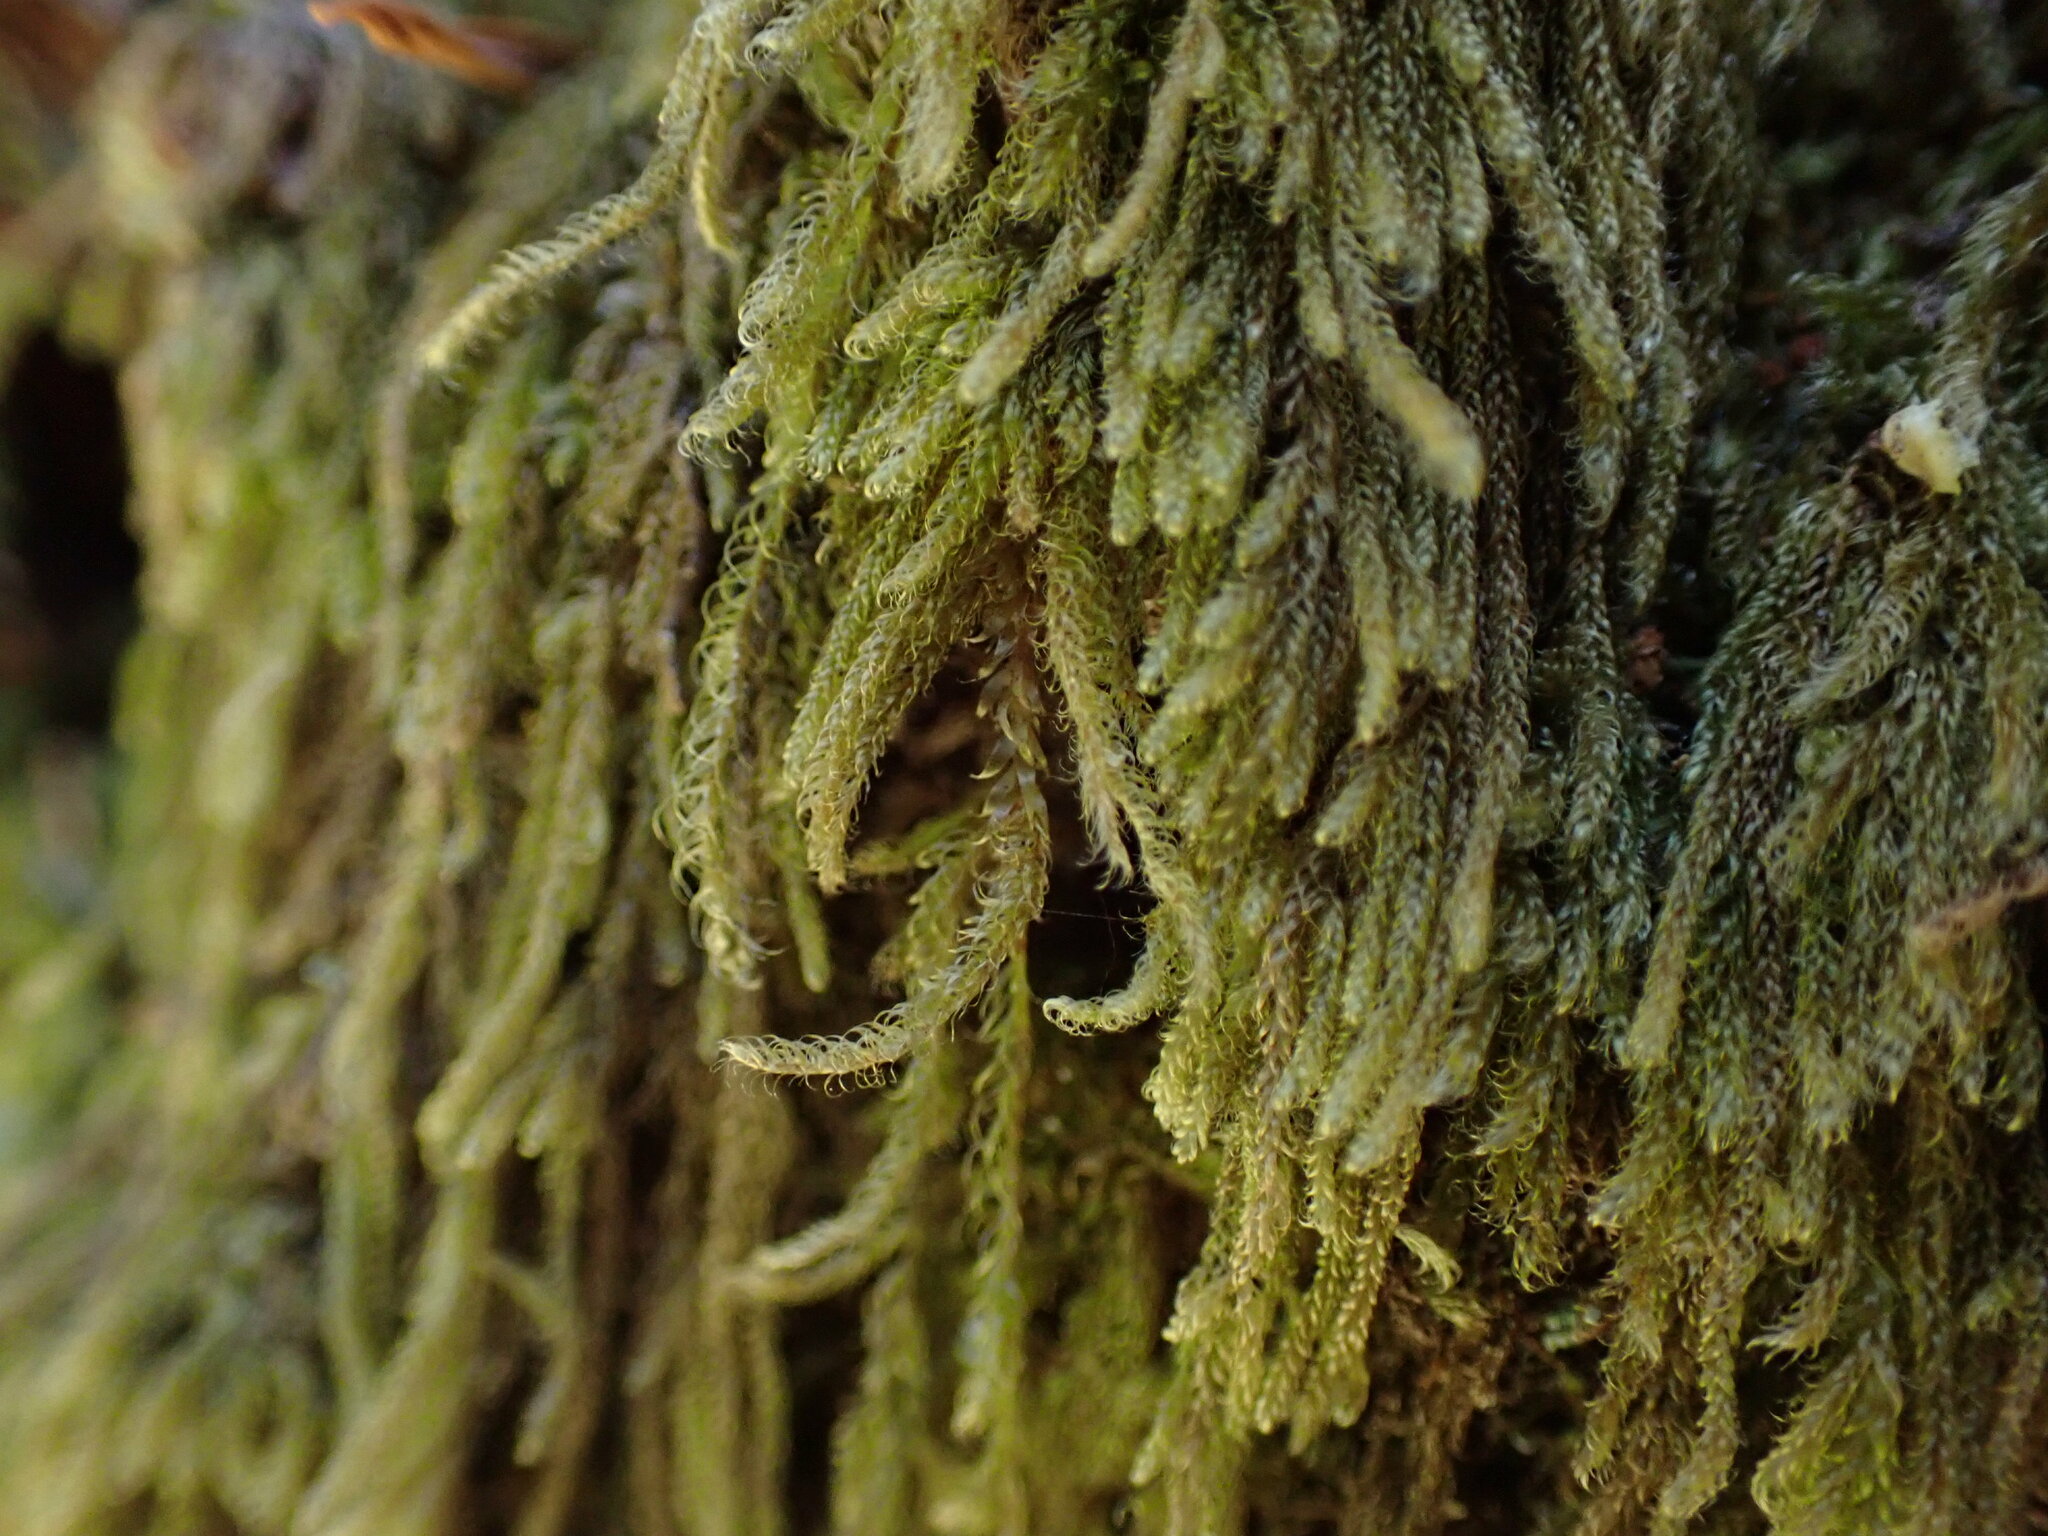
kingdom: Plantae
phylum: Bryophyta
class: Bryopsida
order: Hypnales
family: Pylaisiadelphaceae
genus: Trochophyllohypnum
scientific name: Trochophyllohypnum circinale
